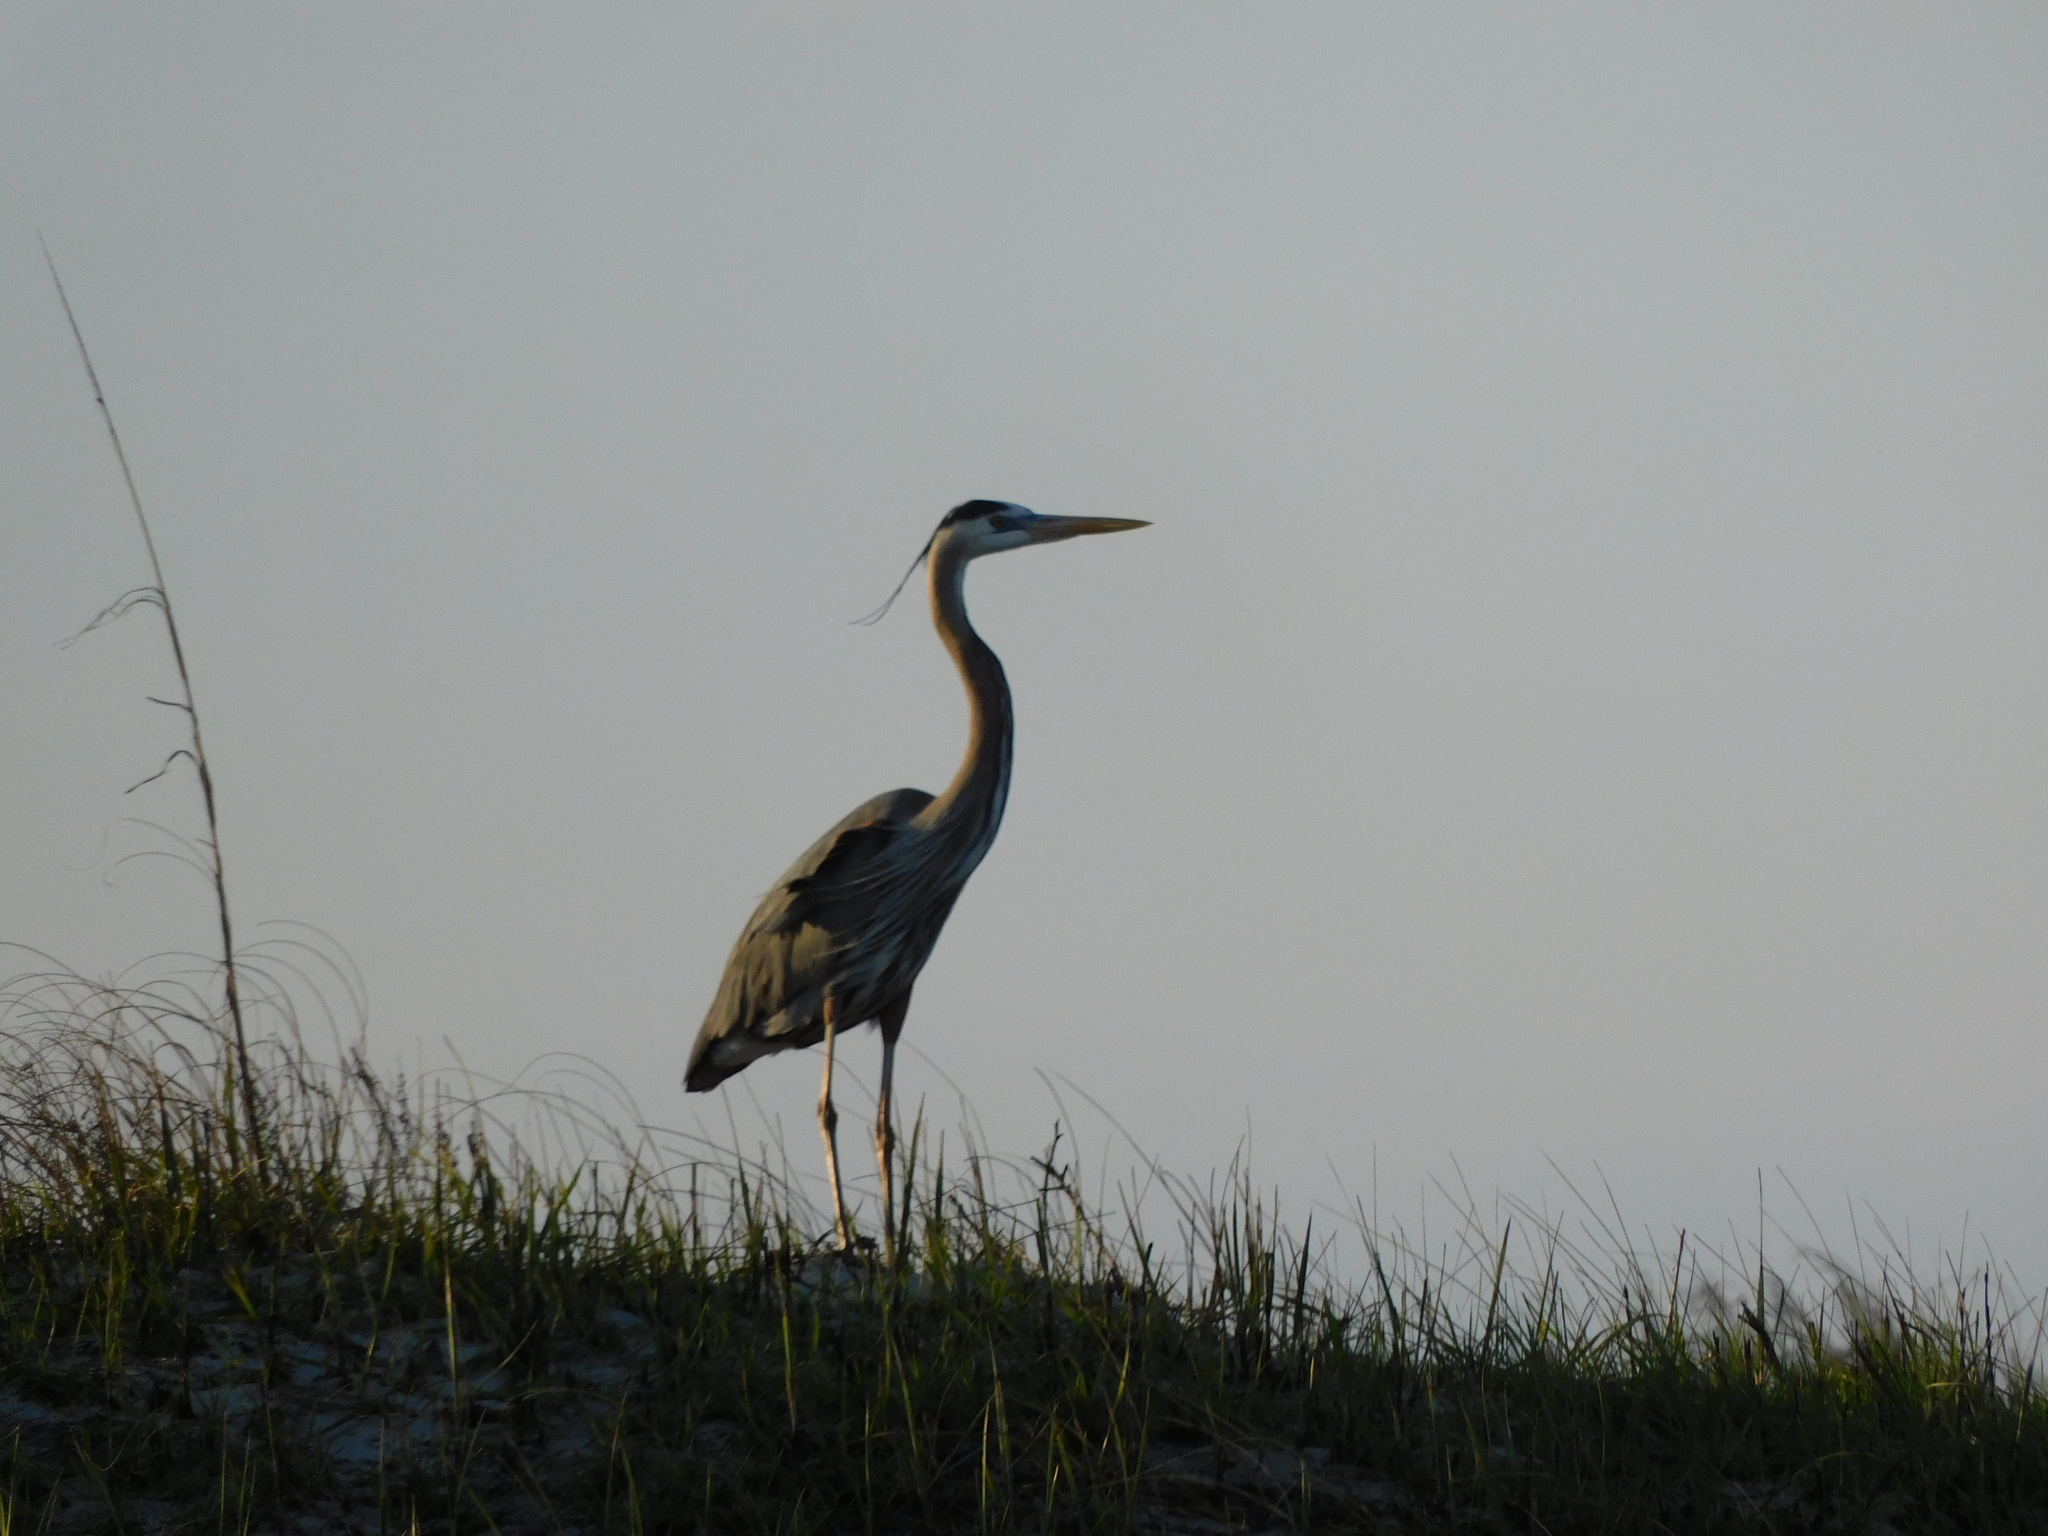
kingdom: Animalia
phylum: Chordata
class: Aves
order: Pelecaniformes
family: Ardeidae
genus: Ardea
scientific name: Ardea herodias
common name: Great blue heron
